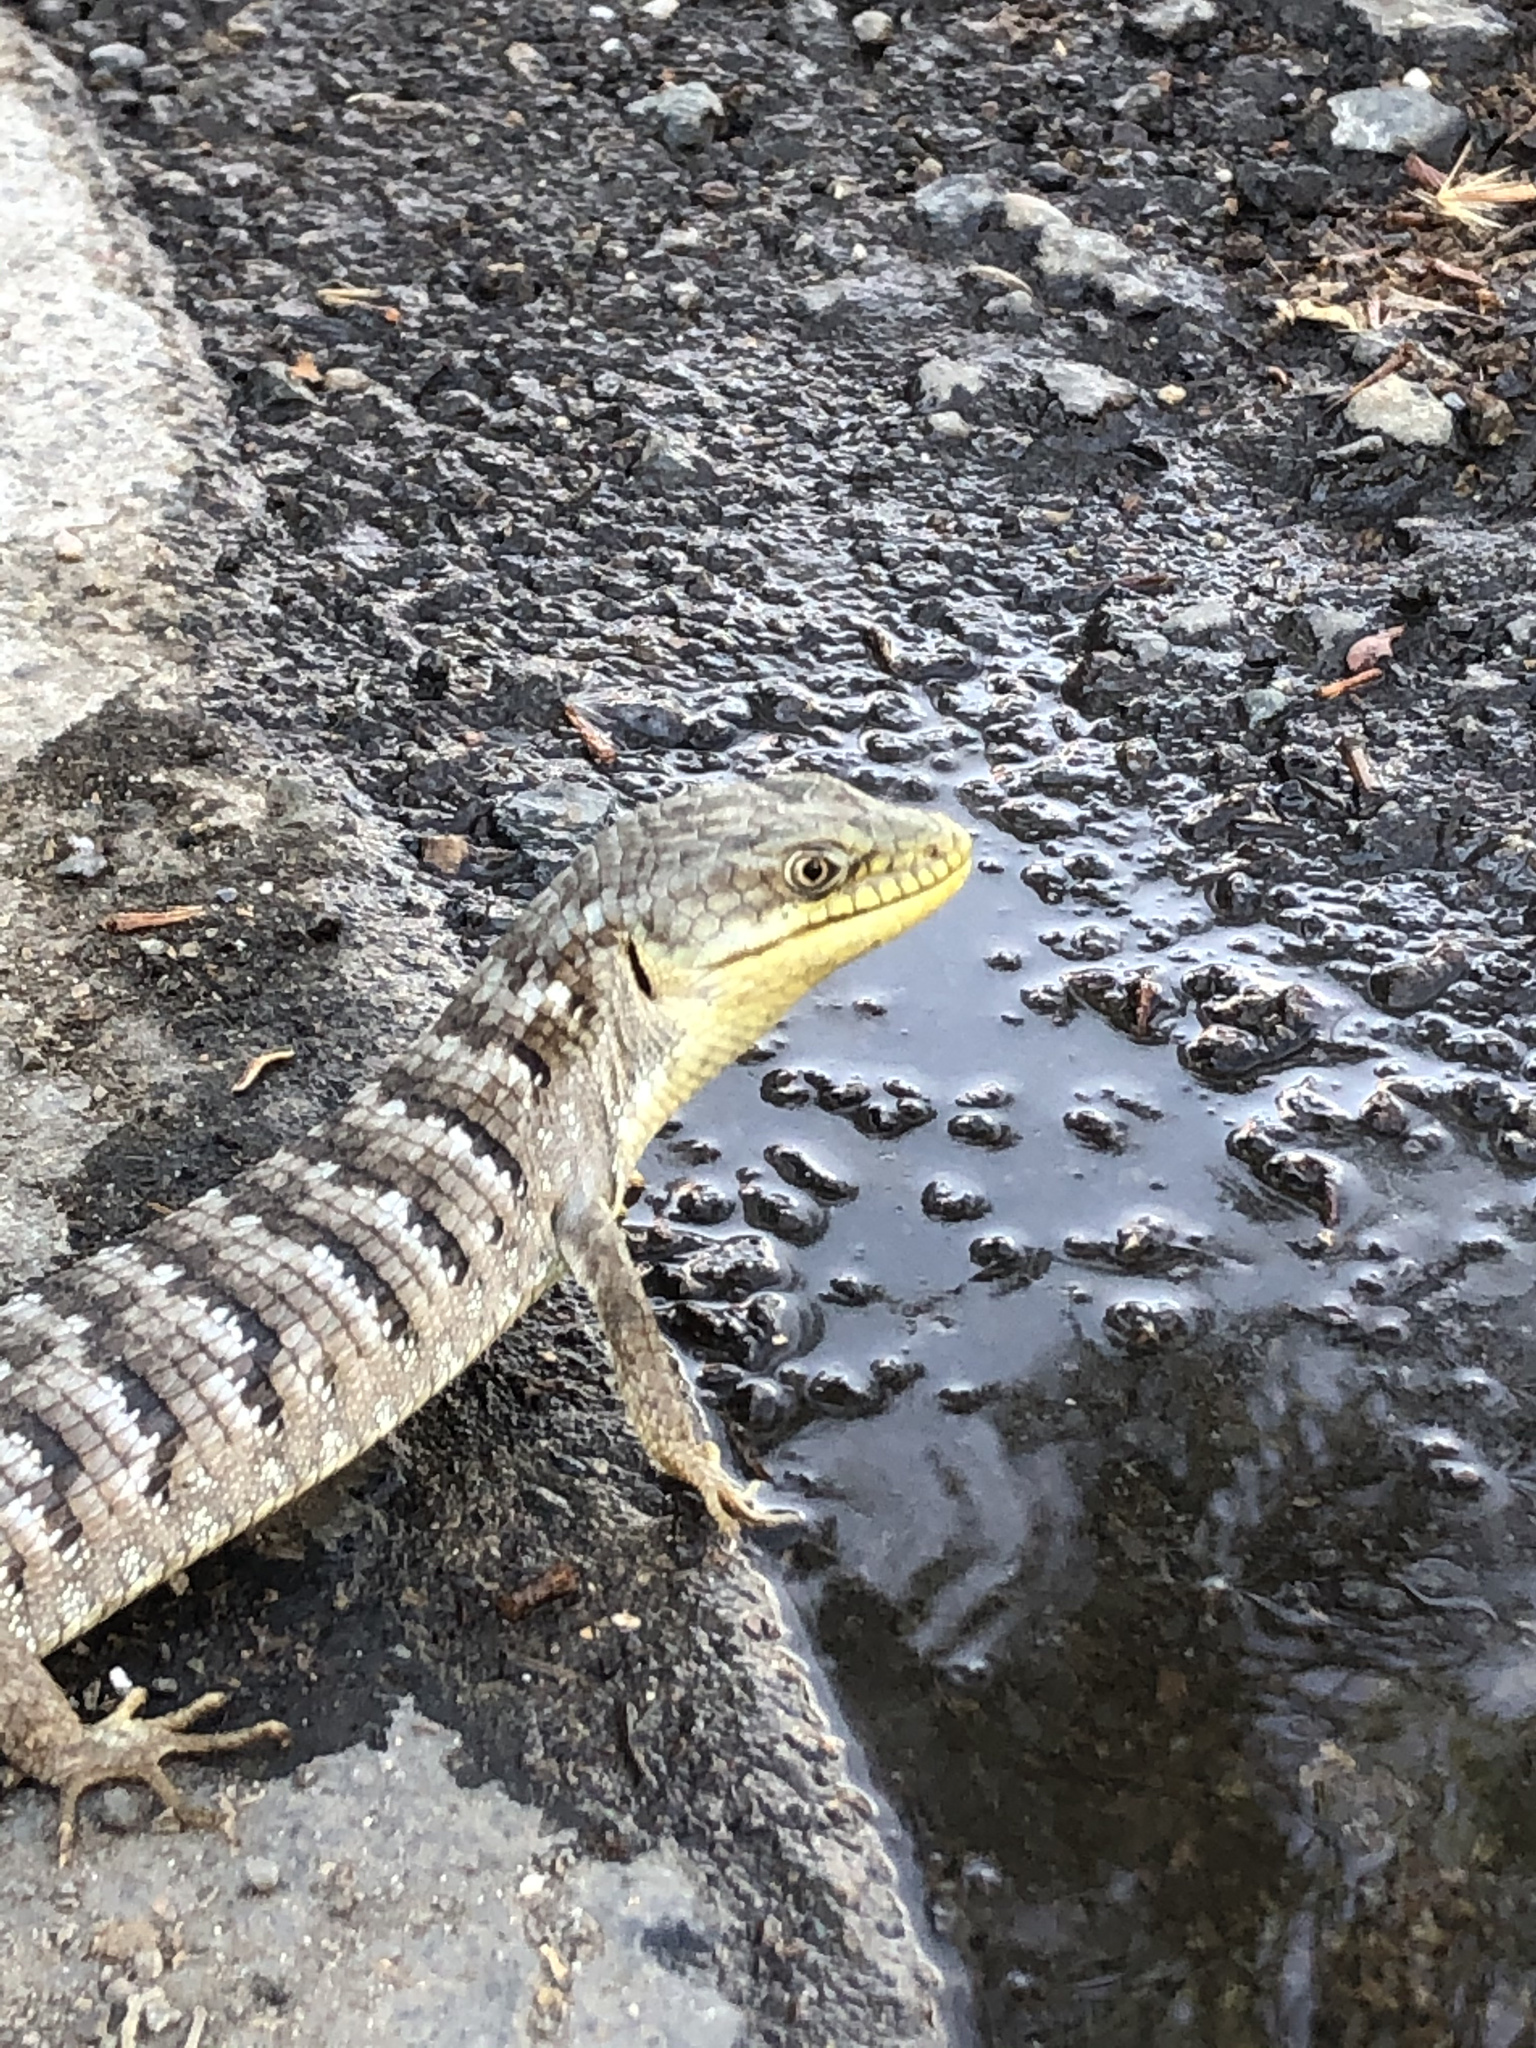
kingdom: Animalia
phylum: Chordata
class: Squamata
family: Anguidae
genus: Elgaria
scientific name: Elgaria multicarinata
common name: Southern alligator lizard
